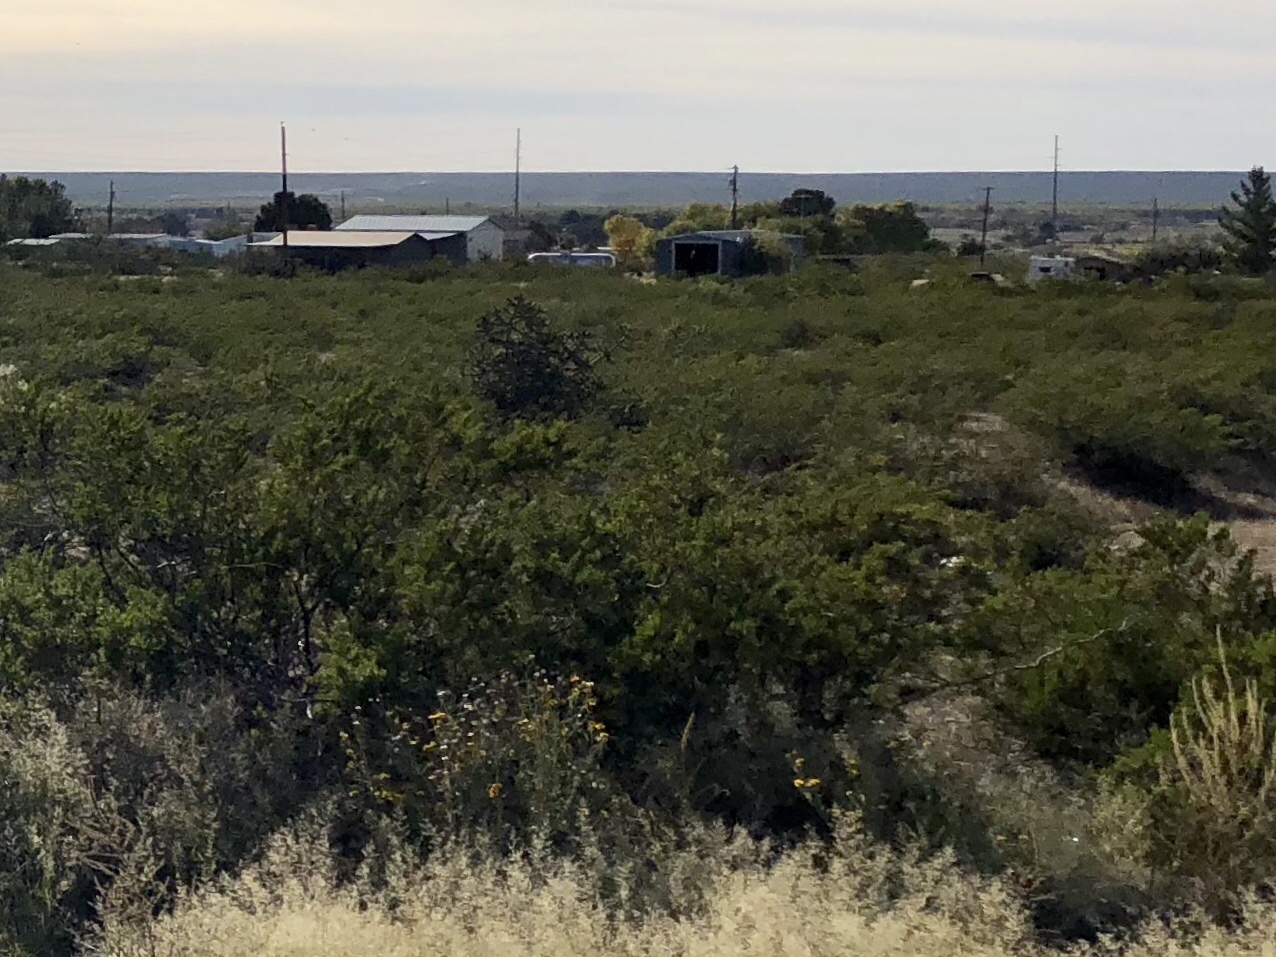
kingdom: Plantae
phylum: Tracheophyta
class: Magnoliopsida
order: Zygophyllales
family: Zygophyllaceae
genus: Larrea
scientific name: Larrea tridentata
